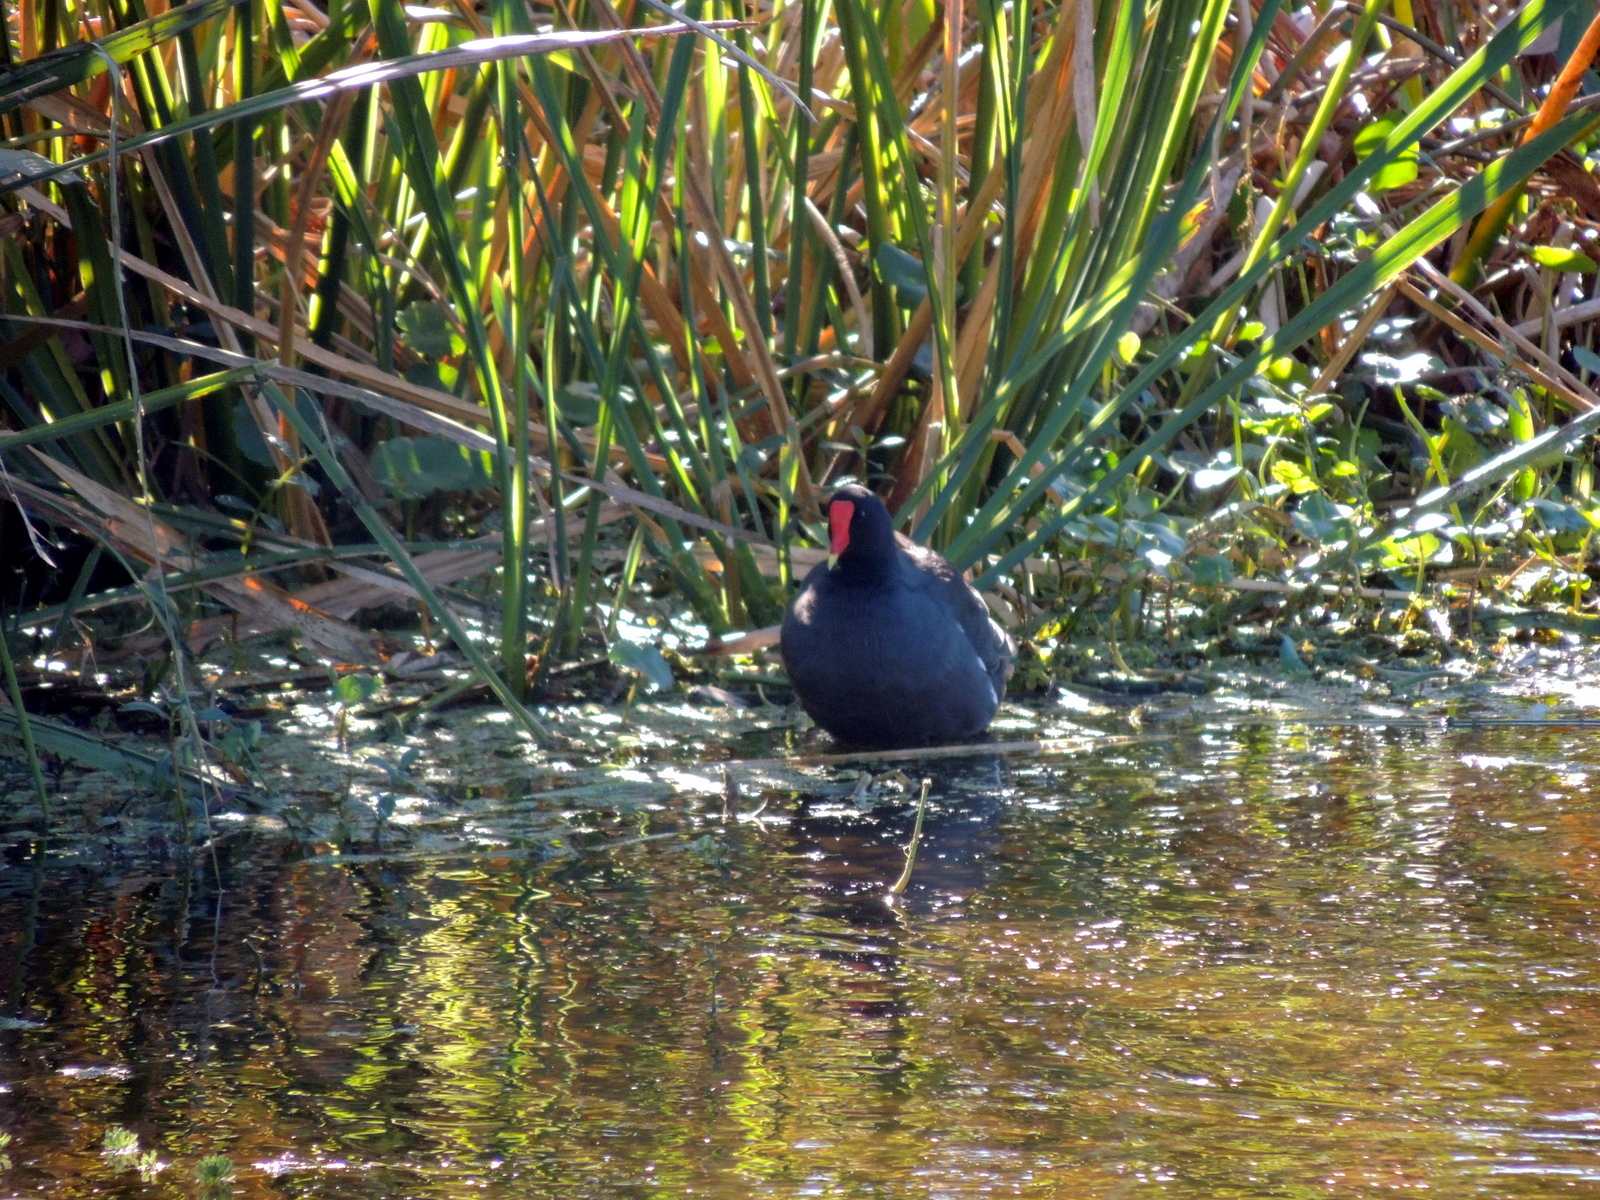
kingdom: Animalia
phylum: Chordata
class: Aves
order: Gruiformes
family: Rallidae
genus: Gallinula
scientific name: Gallinula chloropus
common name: Common moorhen
